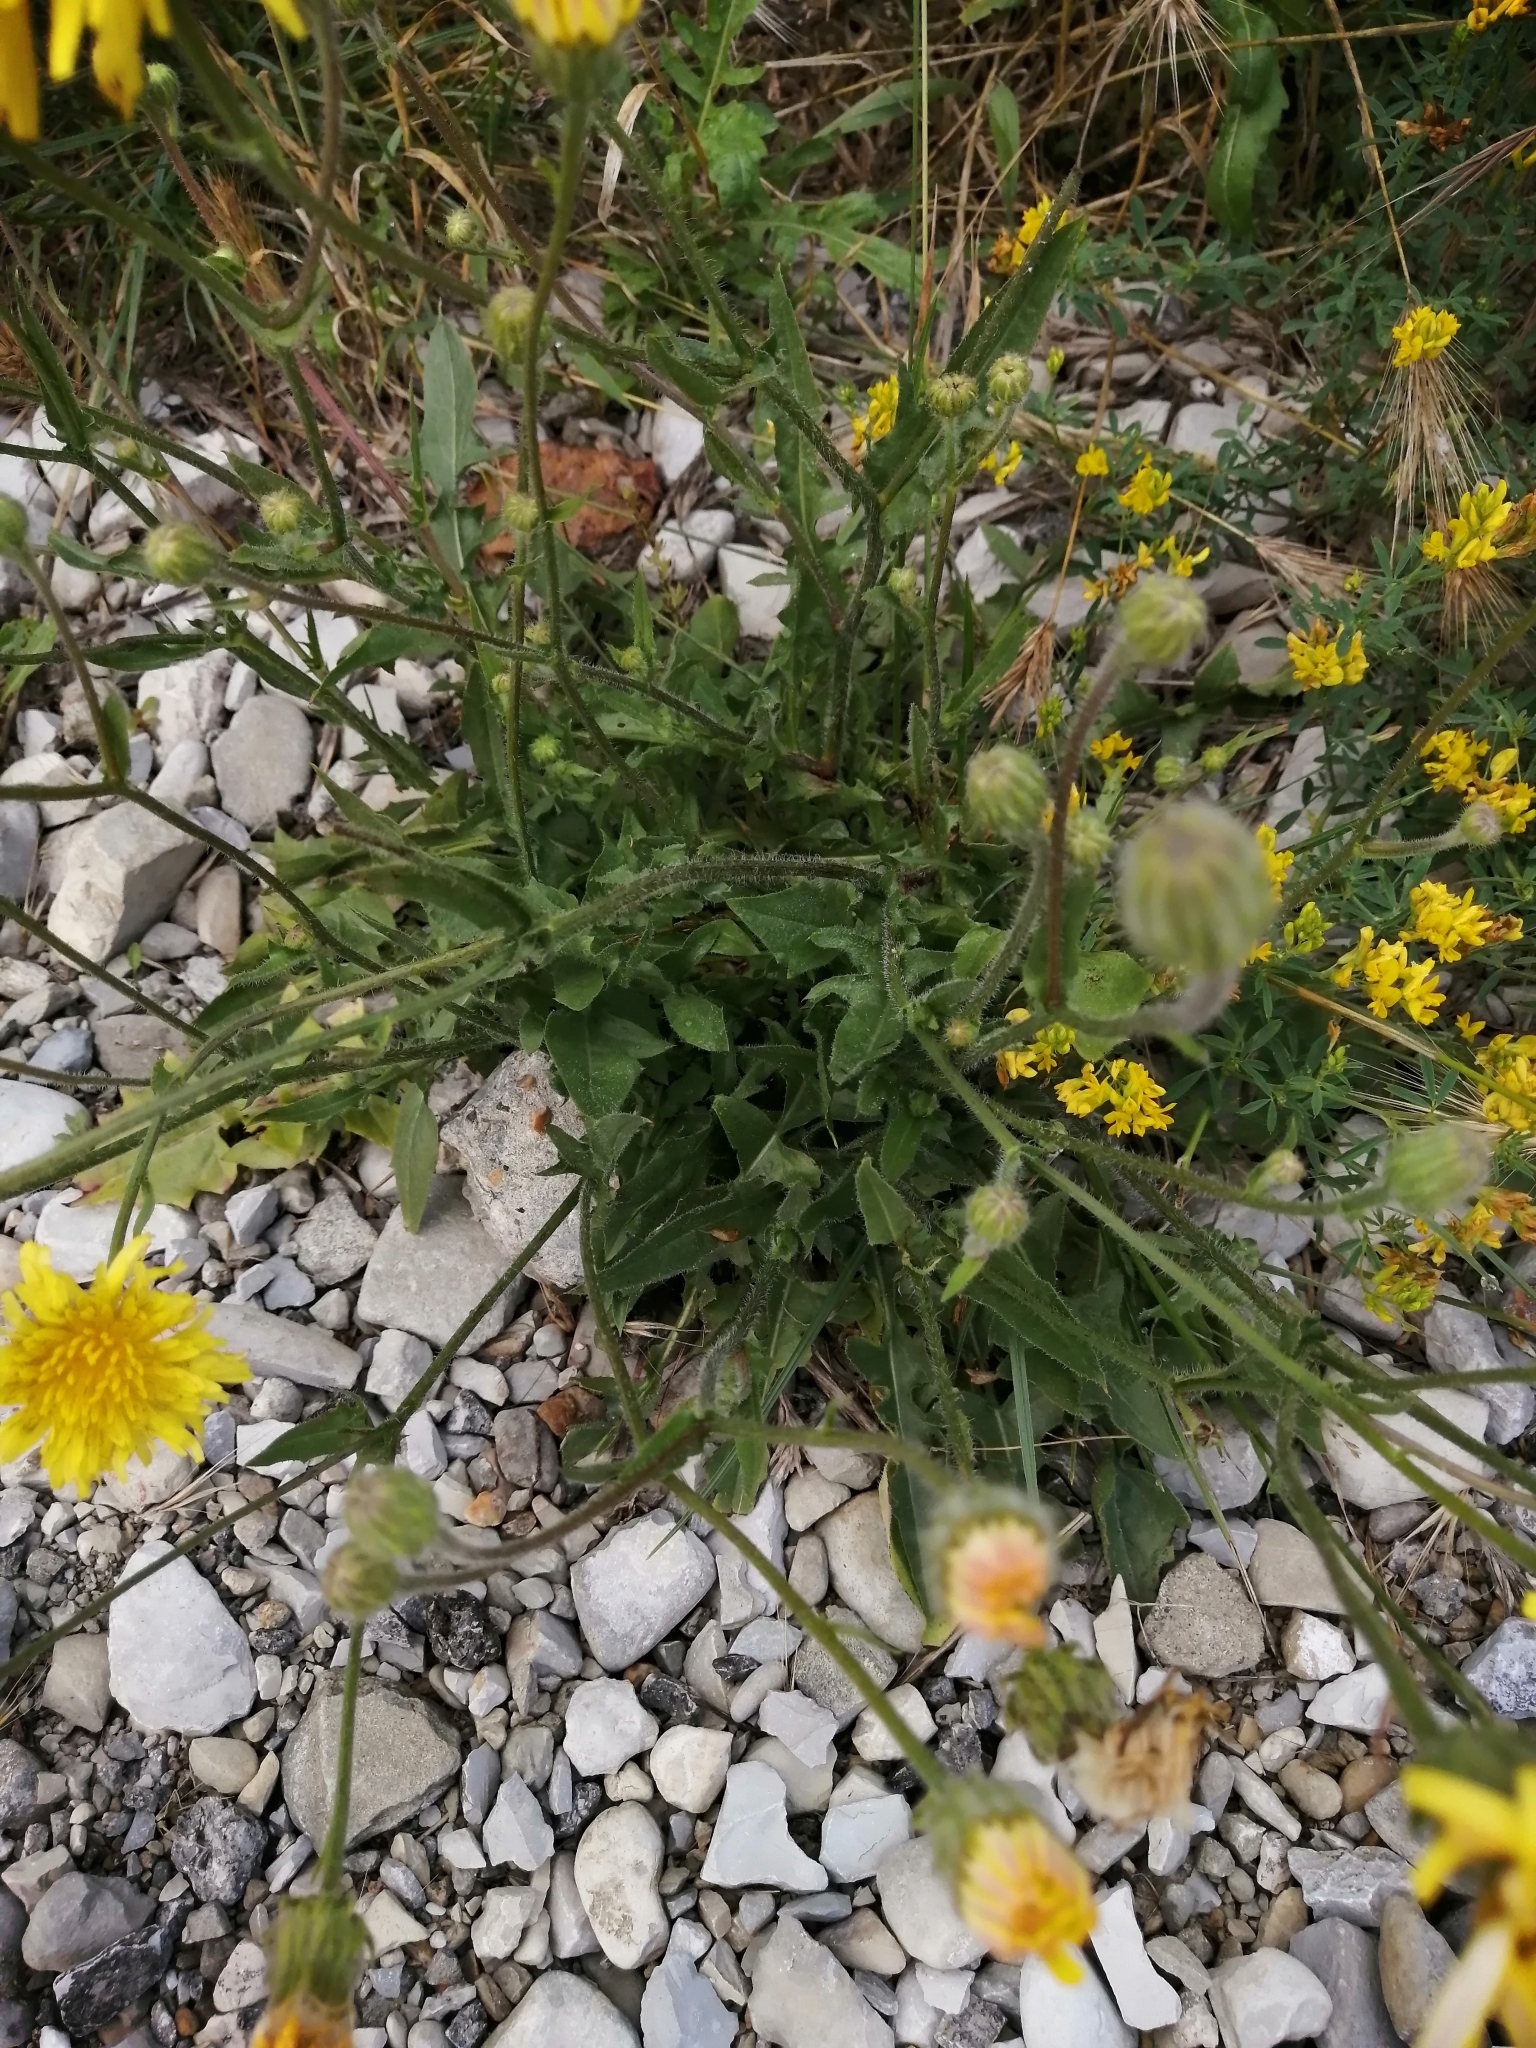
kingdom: Plantae
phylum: Tracheophyta
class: Magnoliopsida
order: Asterales
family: Asteraceae
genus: Crepis
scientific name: Crepis foetida
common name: Stinking hawk's-beard
